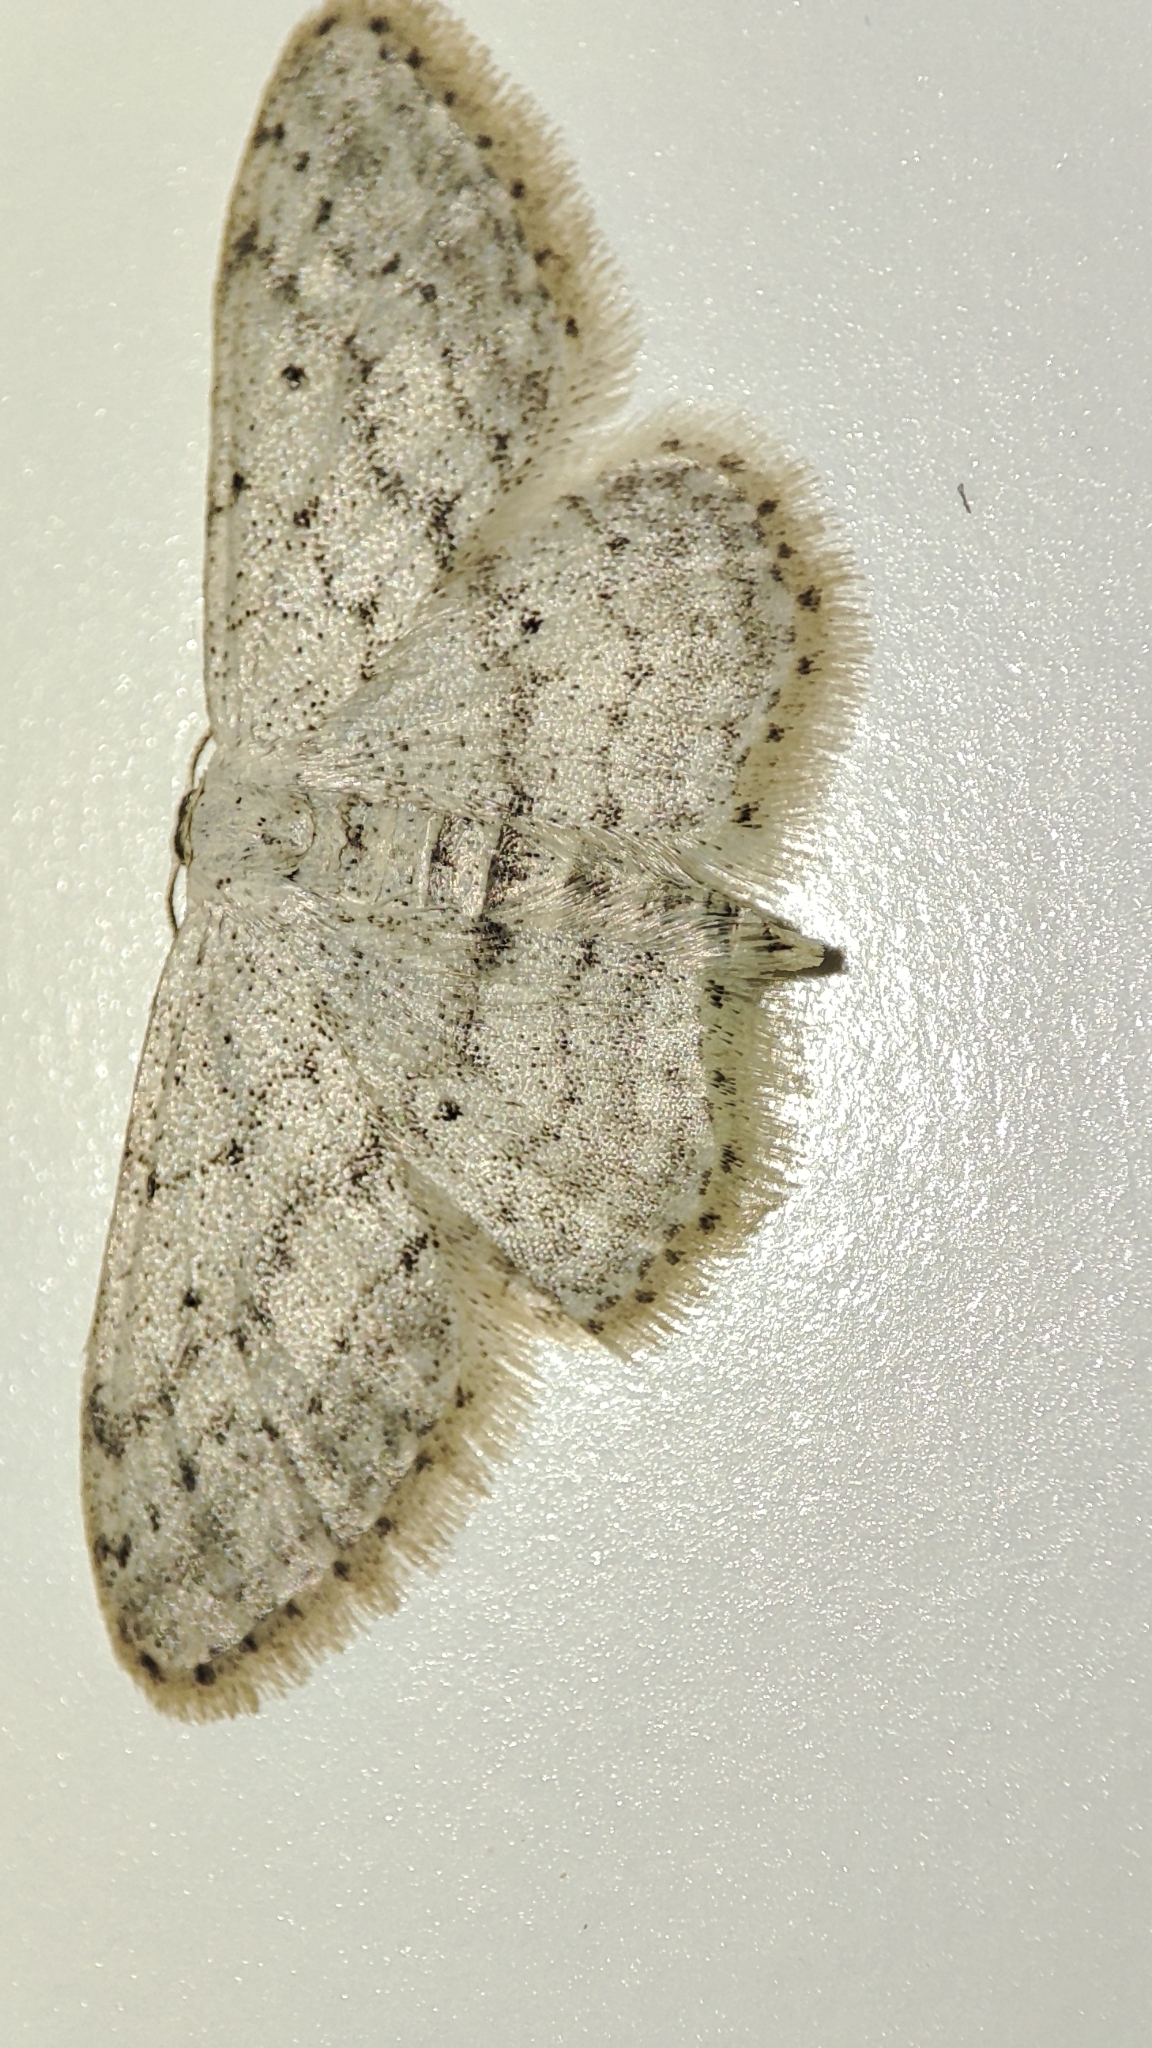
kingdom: Animalia
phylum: Arthropoda
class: Insecta
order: Lepidoptera
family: Geometridae
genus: Idaea
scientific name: Idaea seriata
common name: Small dusty wave
